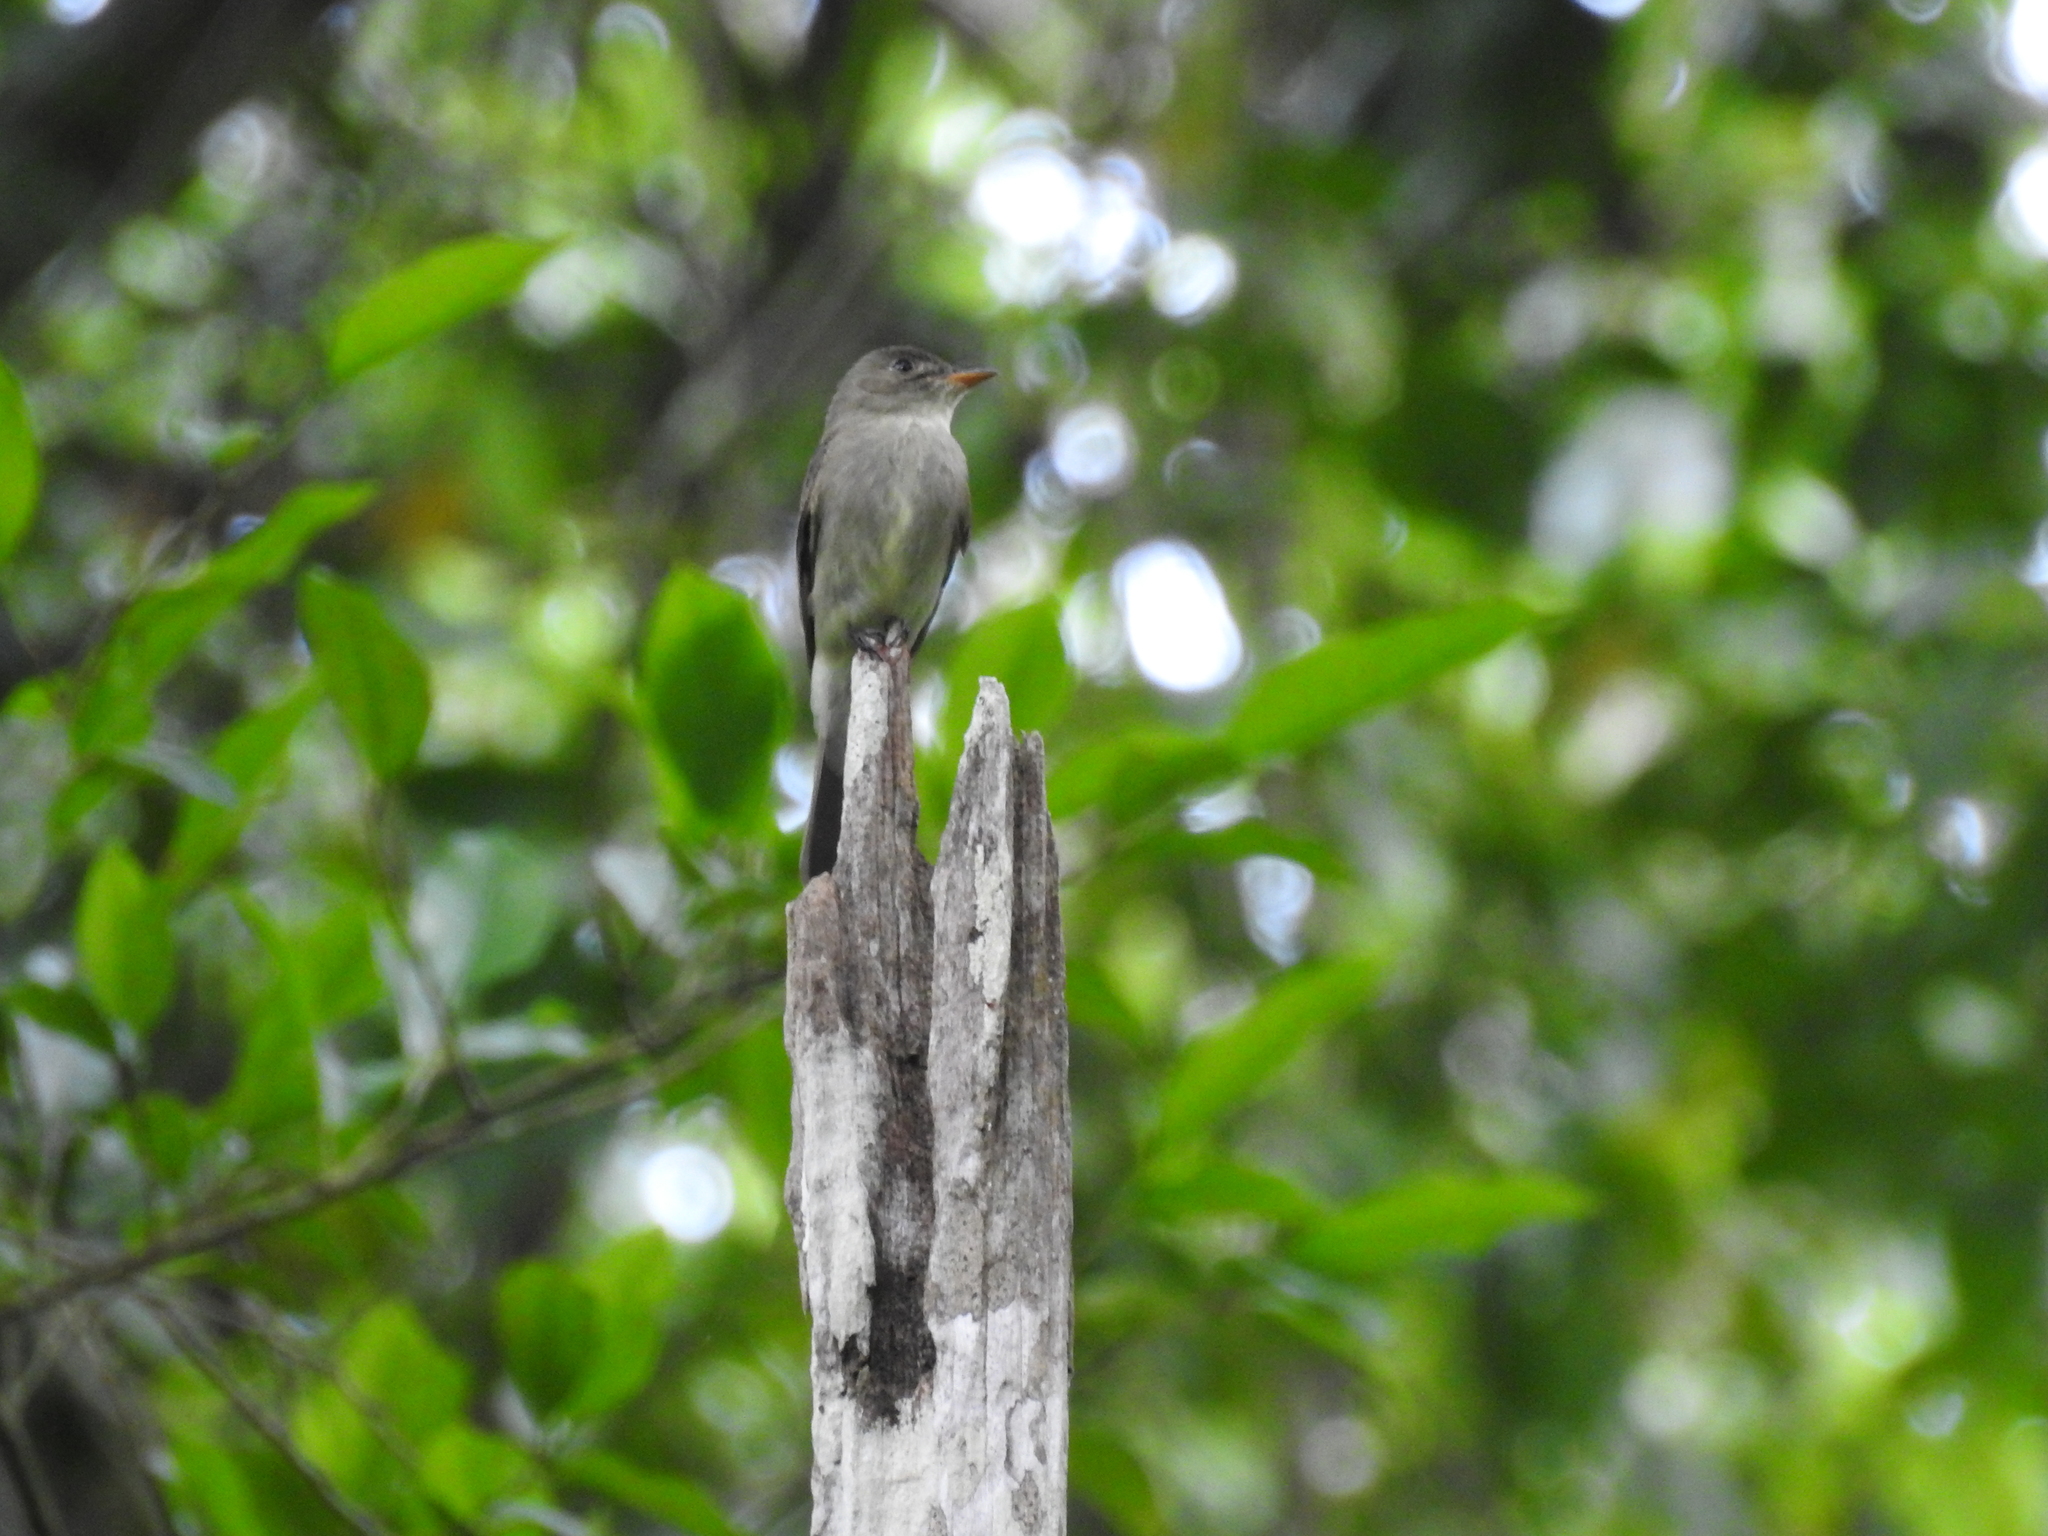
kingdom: Animalia
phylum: Chordata
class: Aves
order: Passeriformes
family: Tyrannidae
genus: Contopus
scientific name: Contopus virens
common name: Eastern wood-pewee
